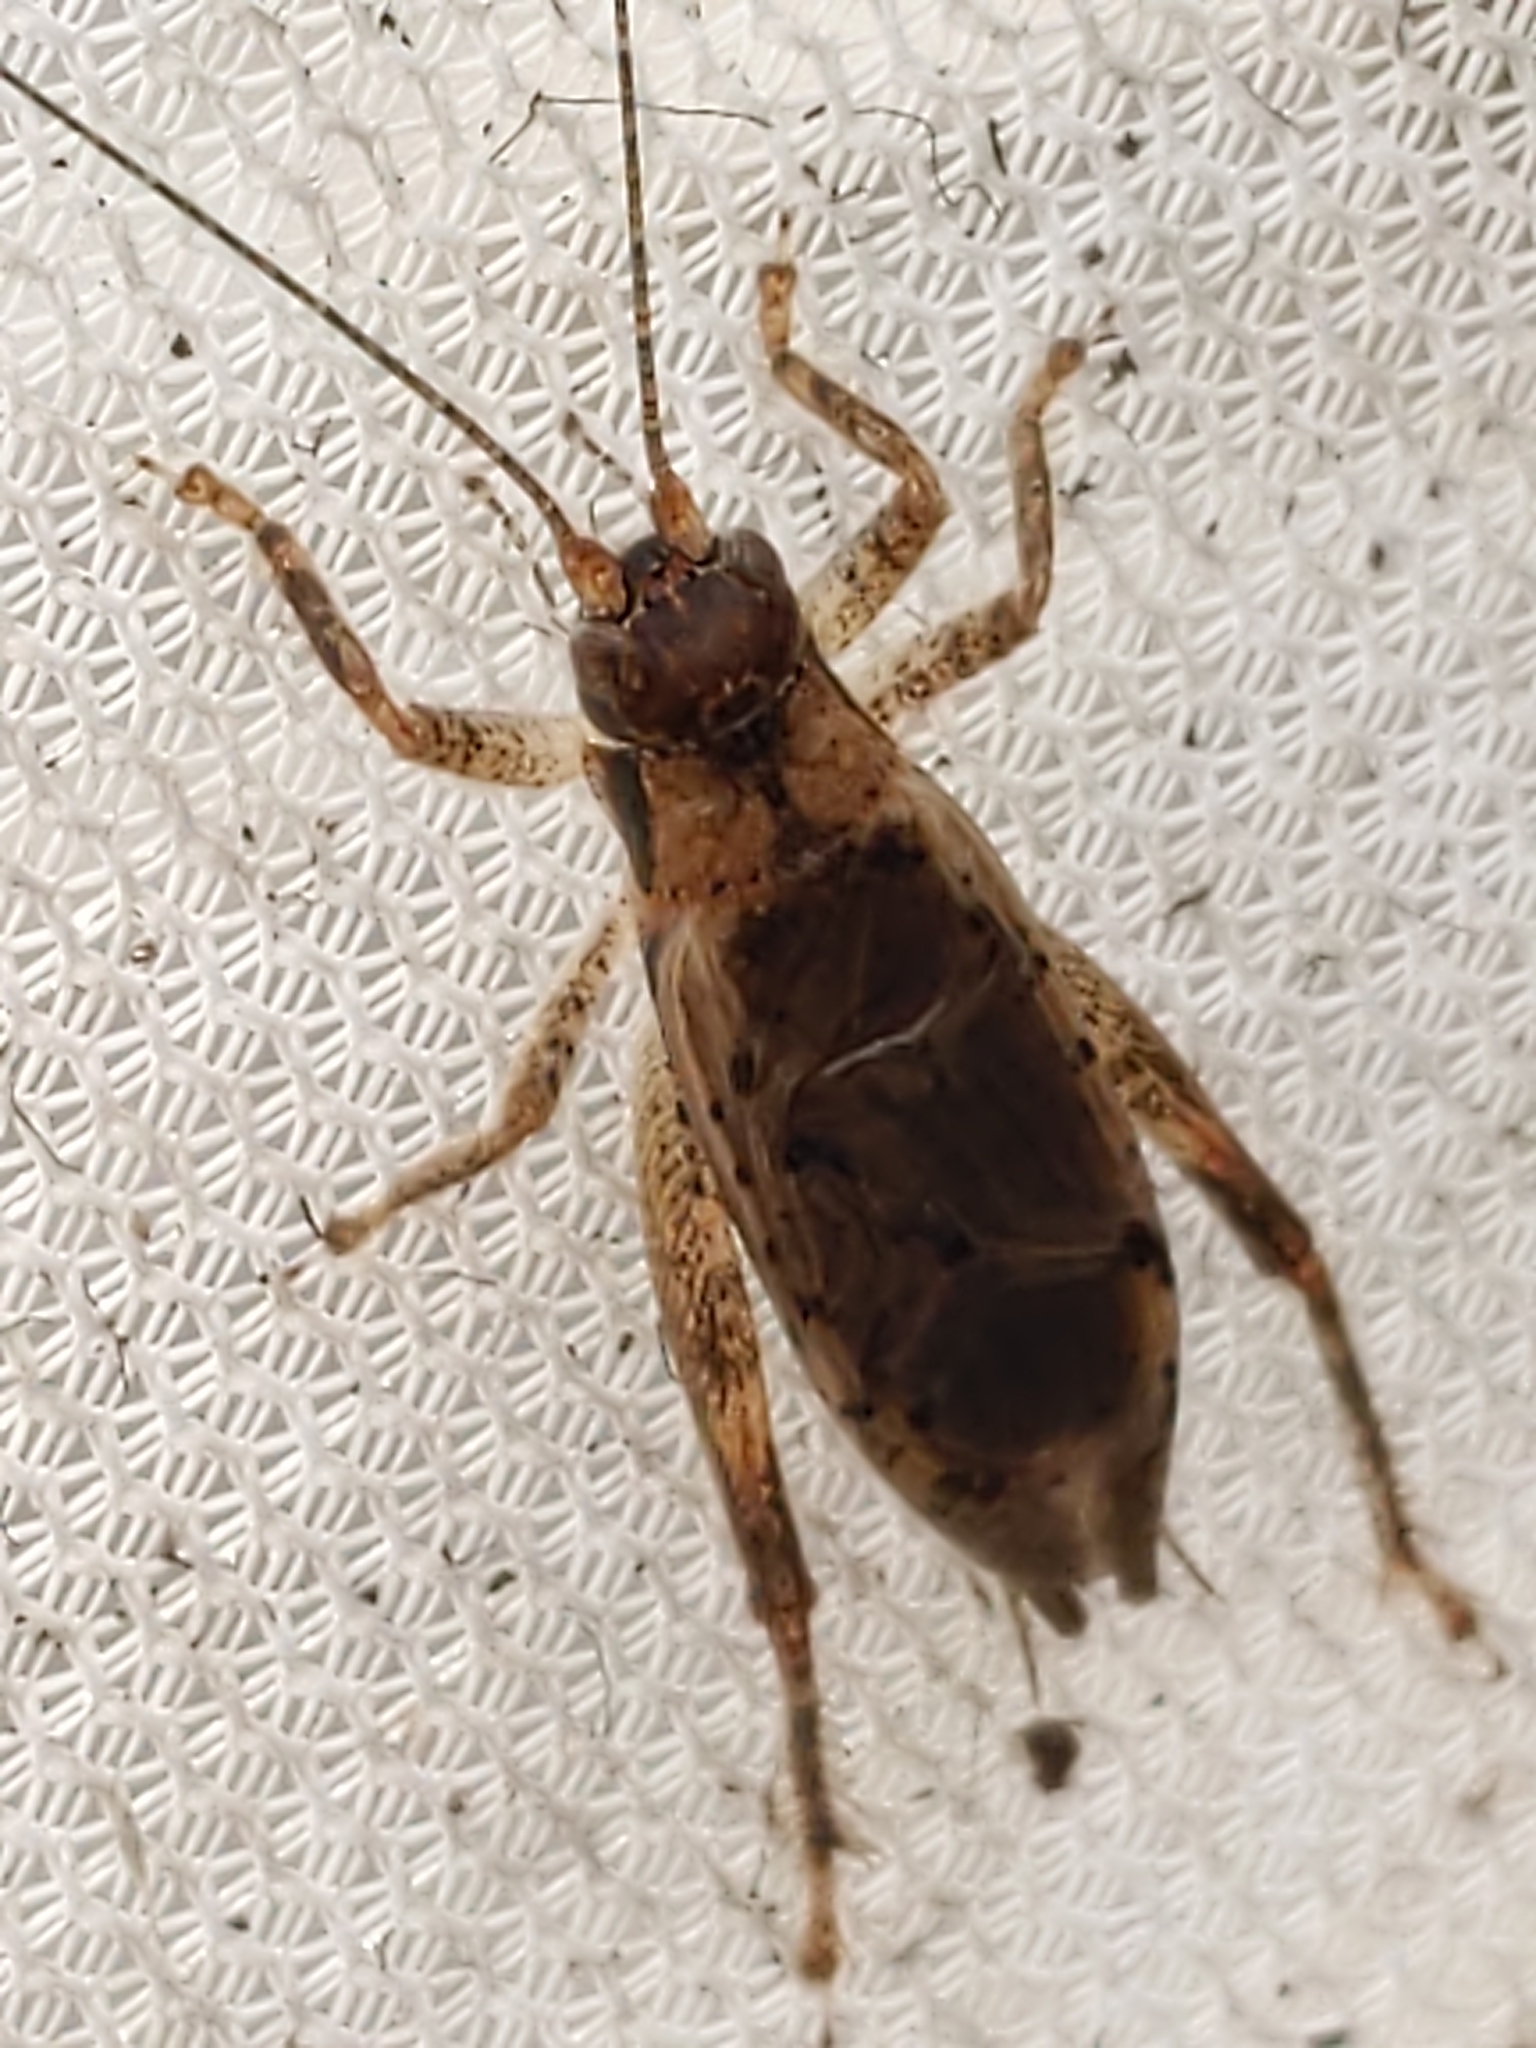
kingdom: Animalia
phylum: Arthropoda
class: Insecta
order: Orthoptera
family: Gryllidae
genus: Hapithus
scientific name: Hapithus saltator
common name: Jumping bush cricket
